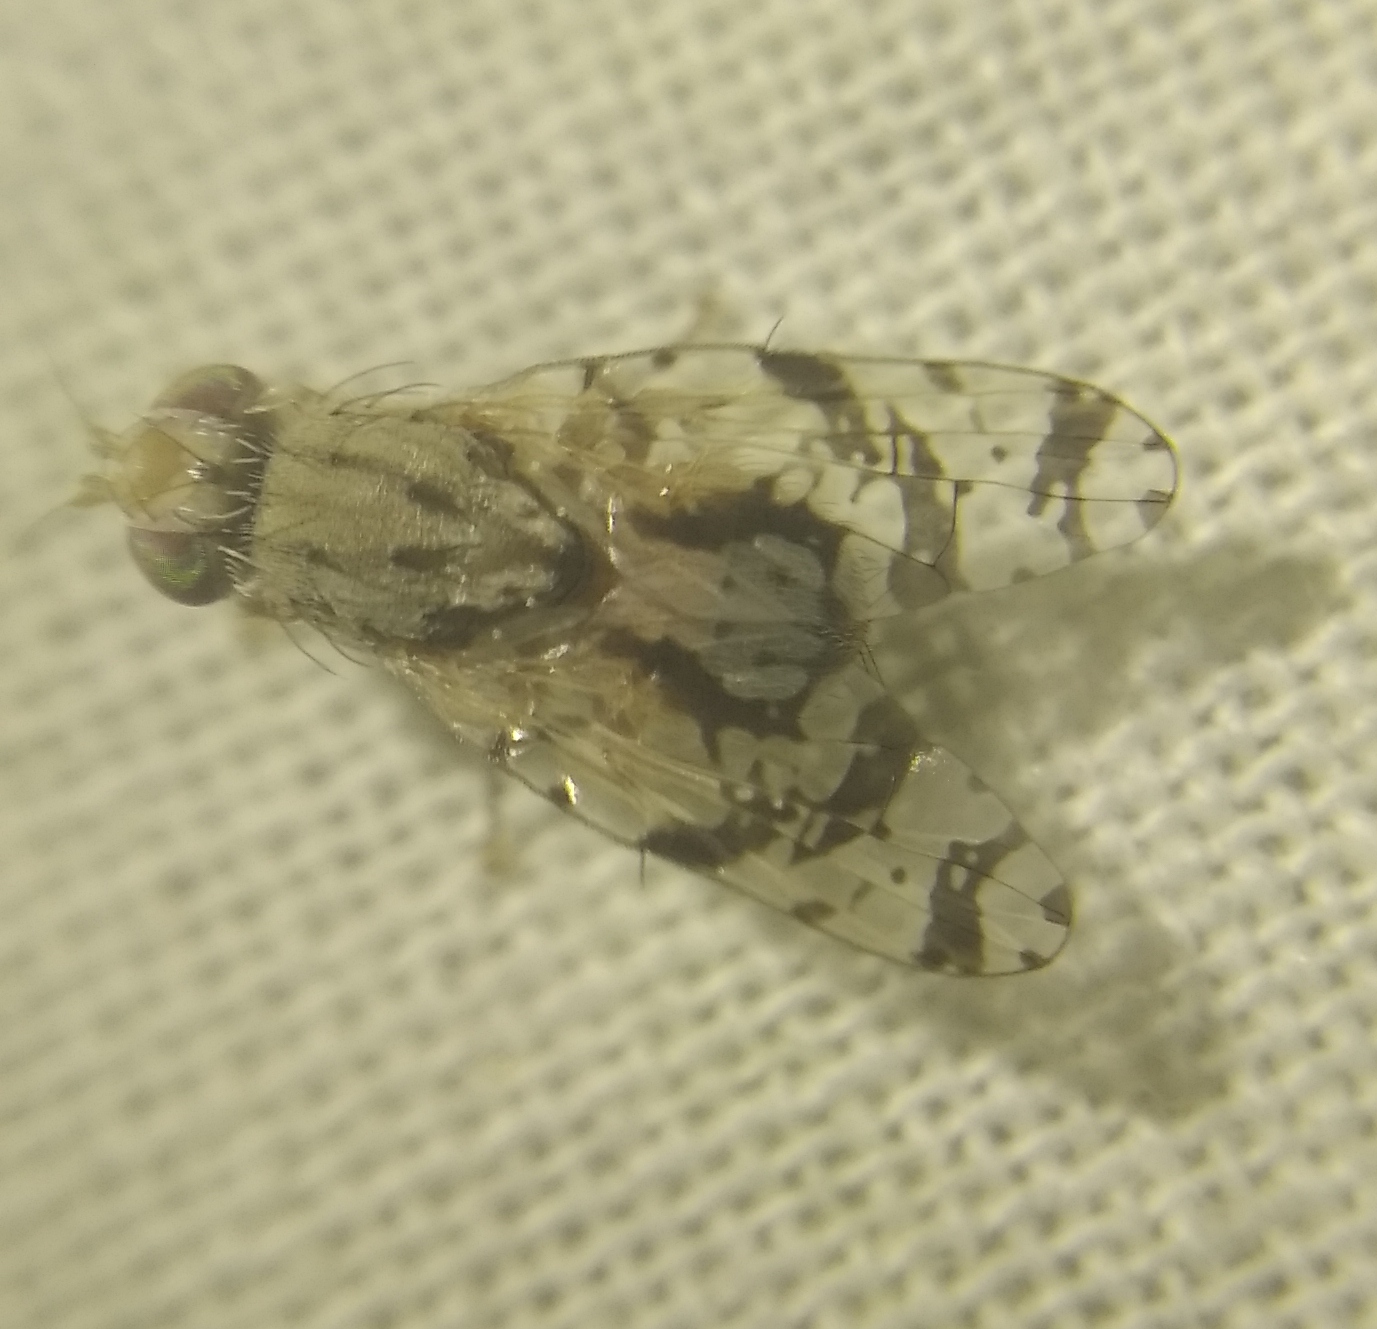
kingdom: Animalia
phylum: Arthropoda
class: Insecta
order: Diptera
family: Tephritidae
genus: Tephritis
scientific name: Tephritis postica
